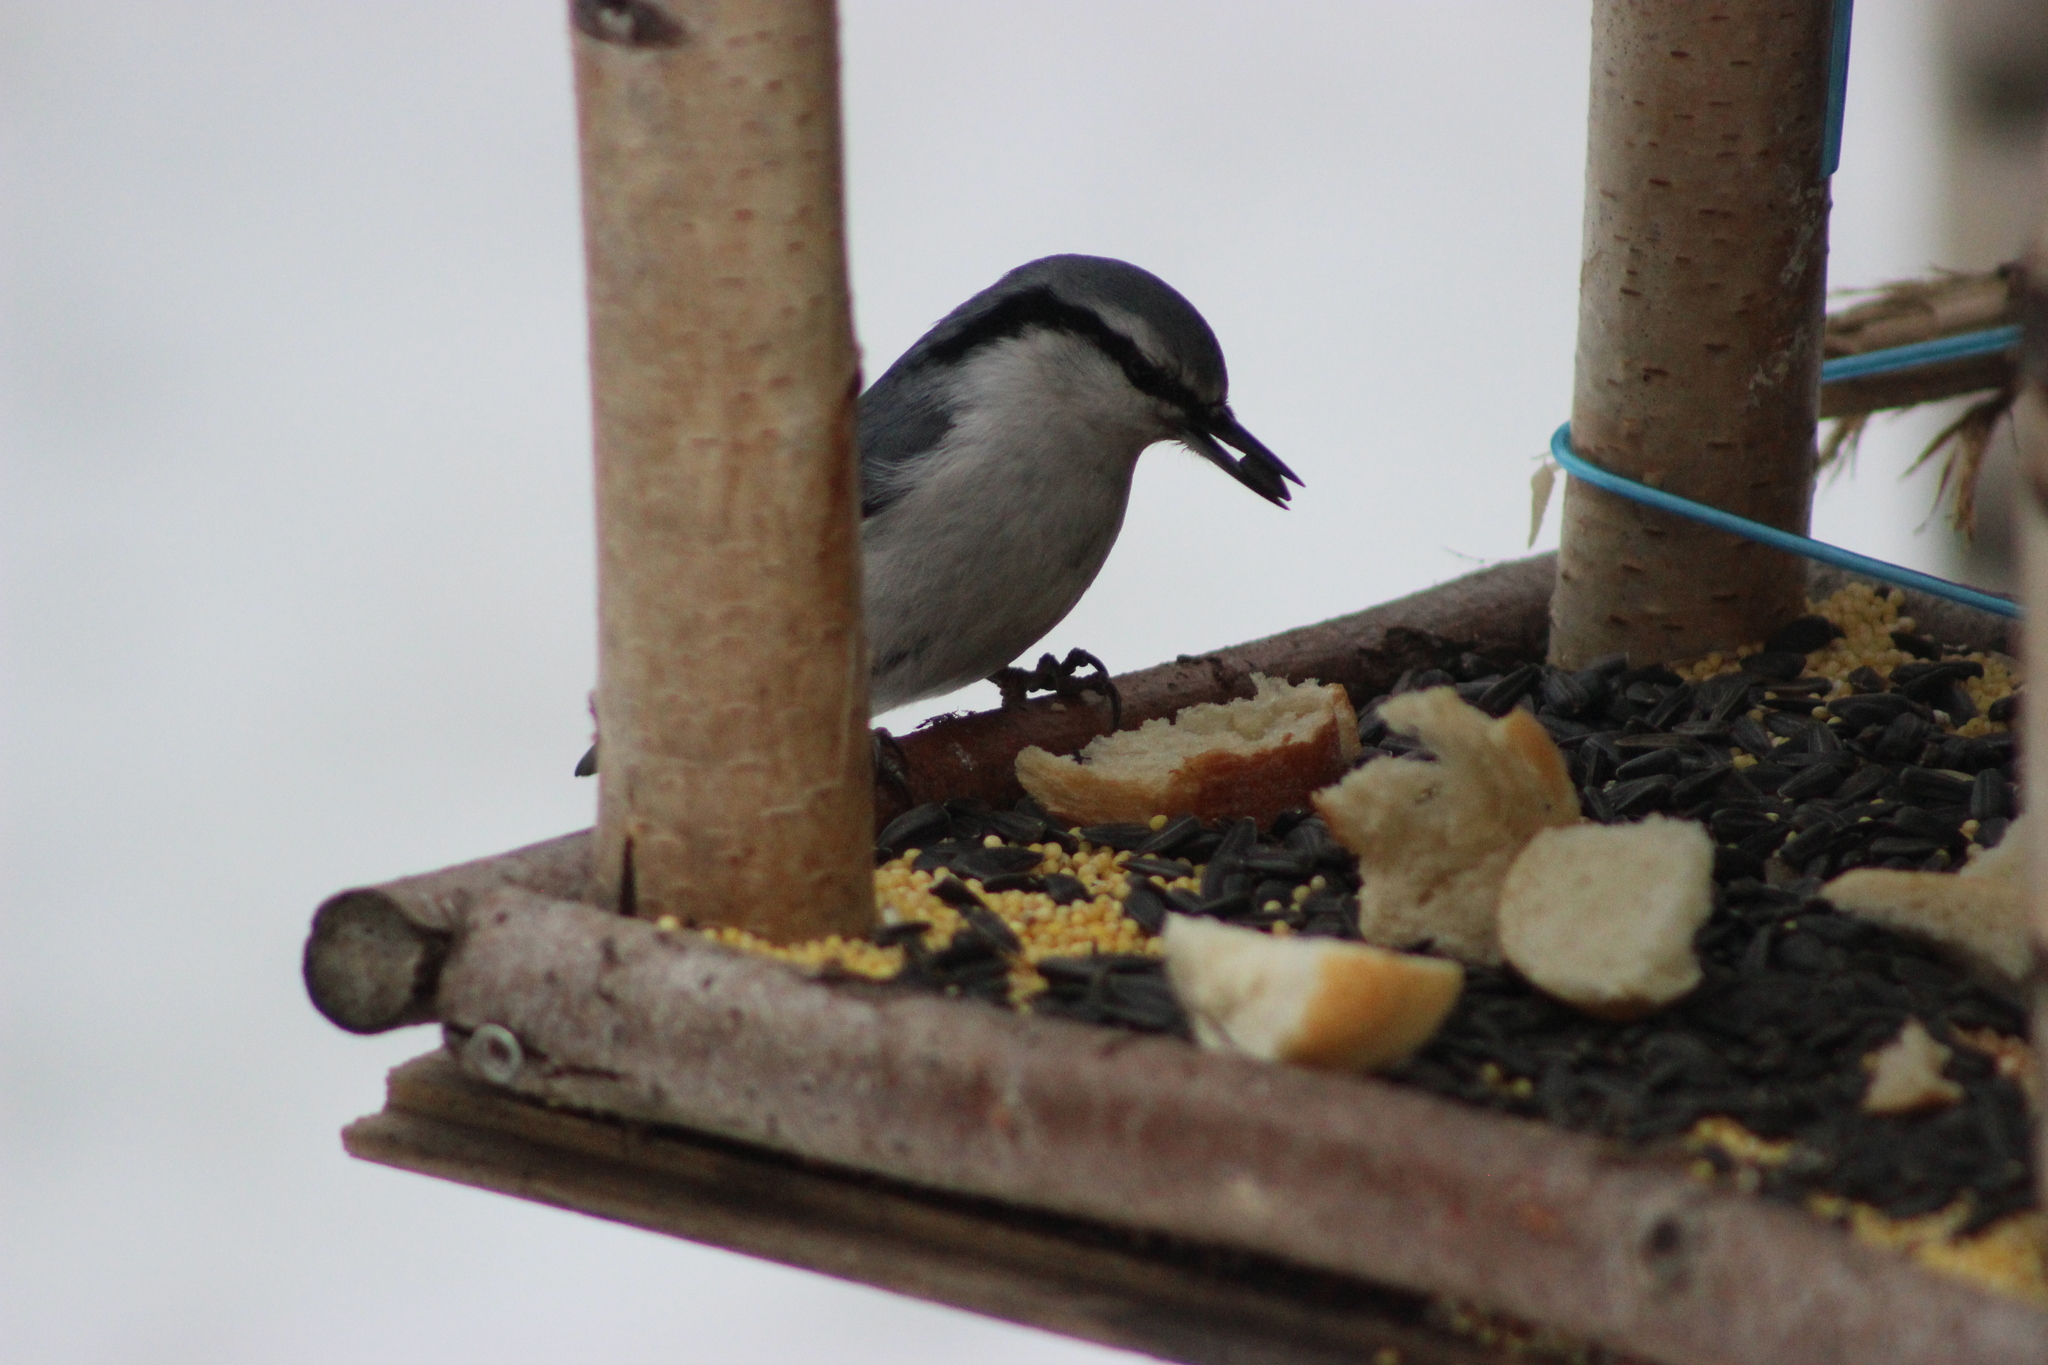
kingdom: Animalia
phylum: Chordata
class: Aves
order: Passeriformes
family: Sittidae
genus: Sitta
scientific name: Sitta europaea
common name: Eurasian nuthatch
